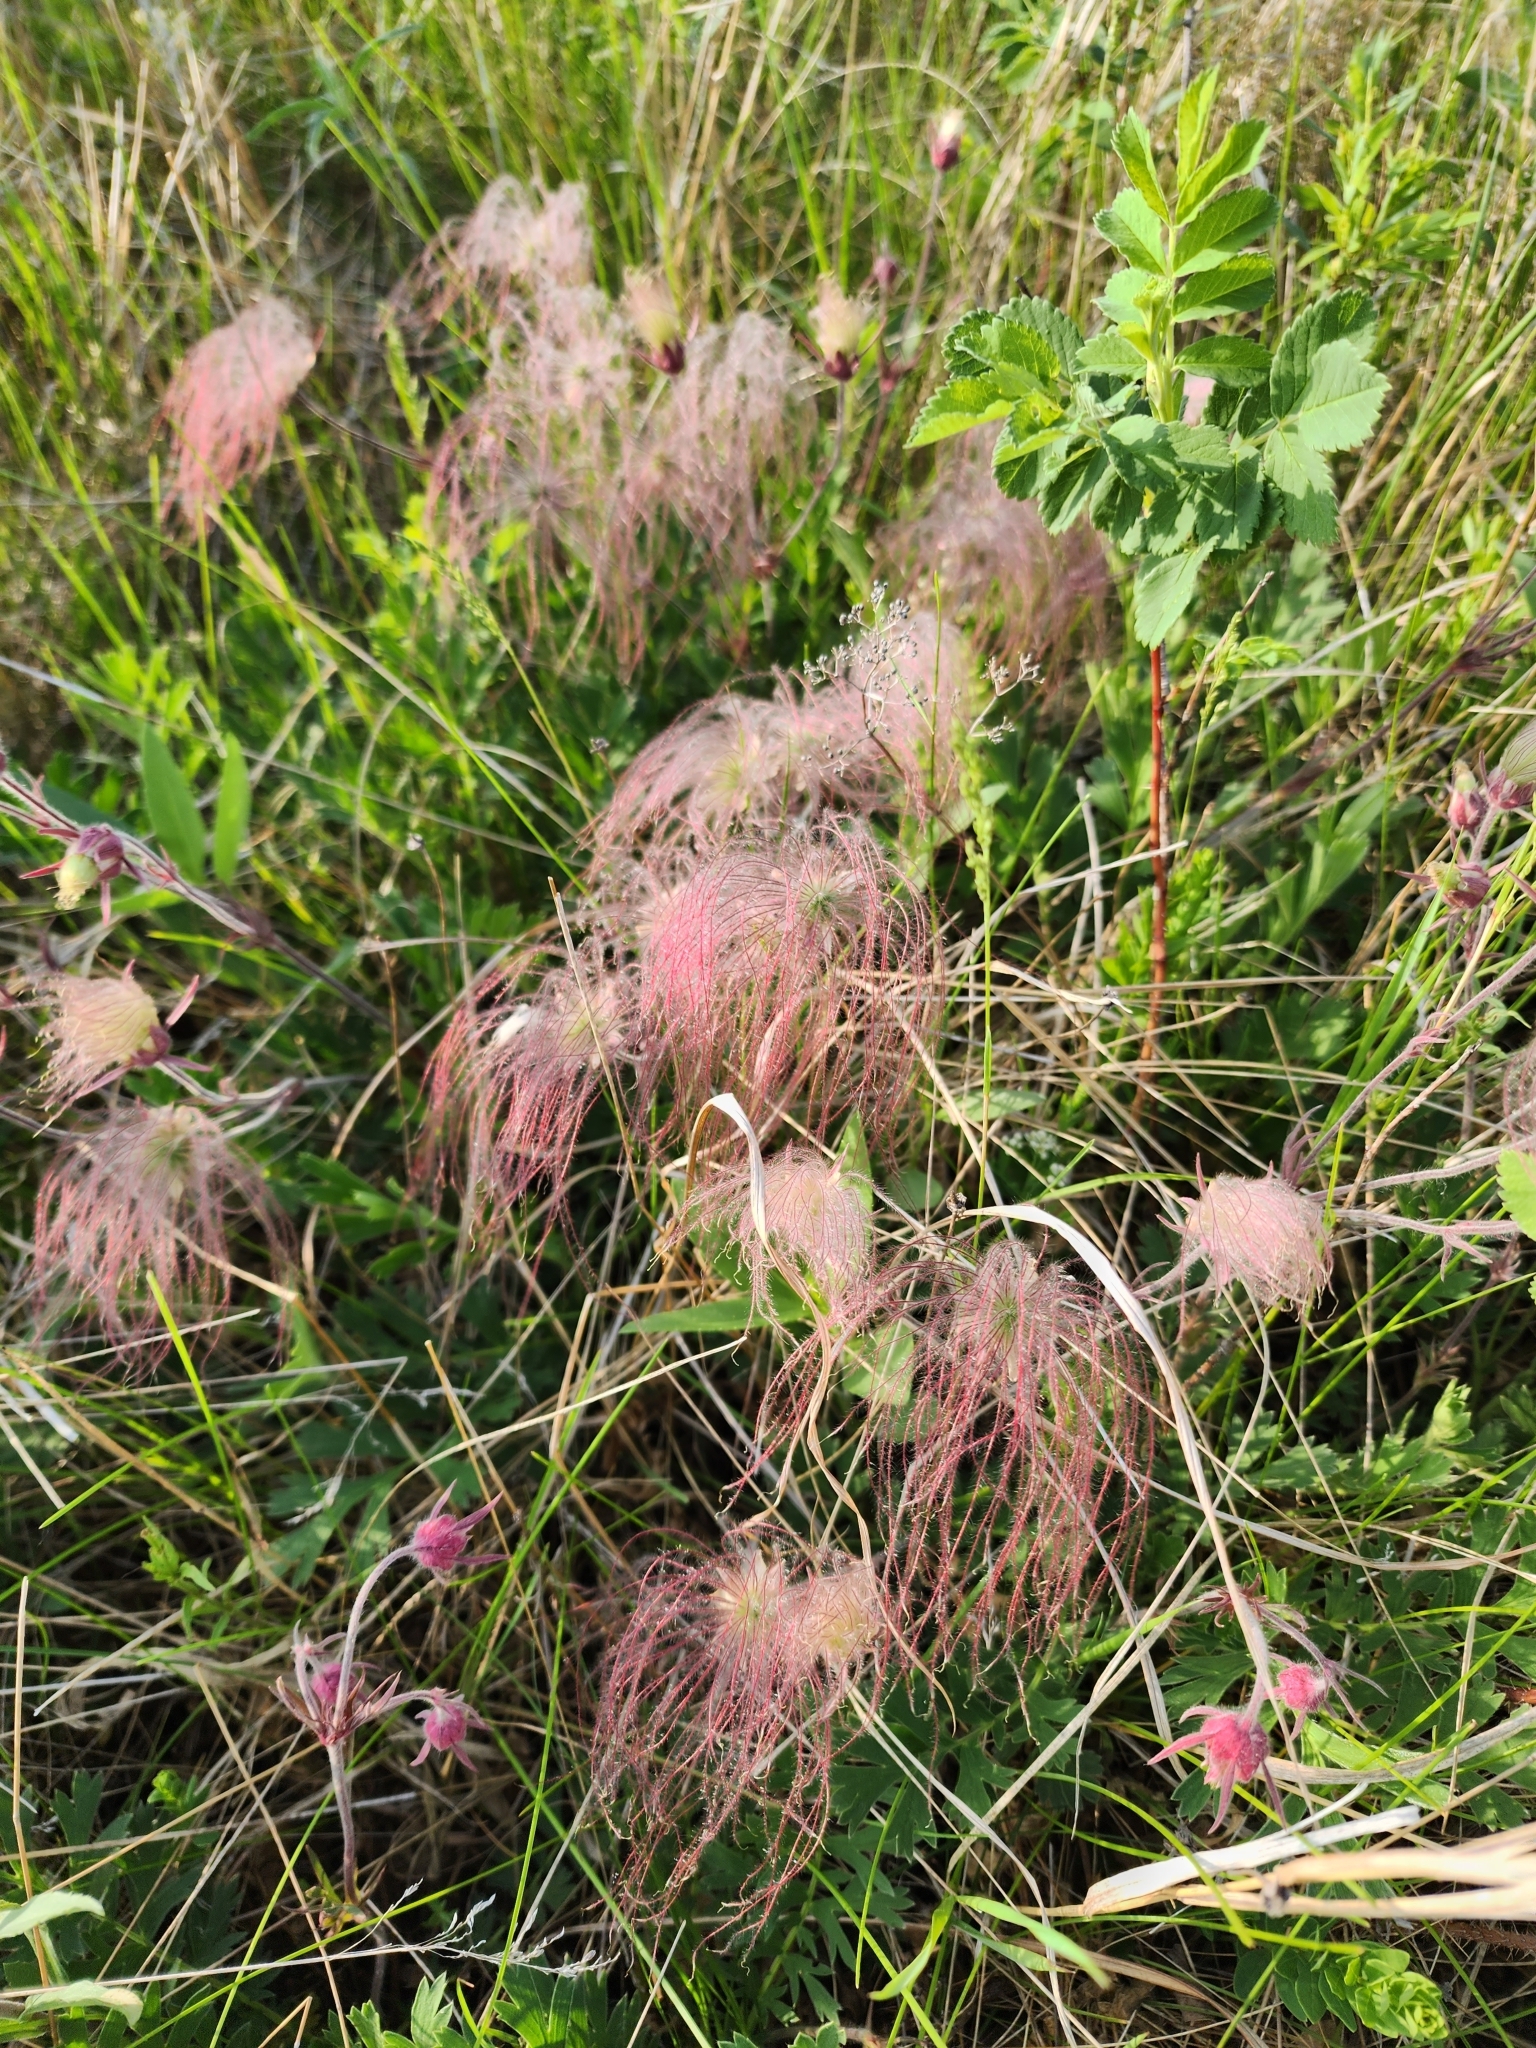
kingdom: Plantae
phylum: Tracheophyta
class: Magnoliopsida
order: Rosales
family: Rosaceae
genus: Geum
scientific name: Geum triflorum
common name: Old man's whiskers
